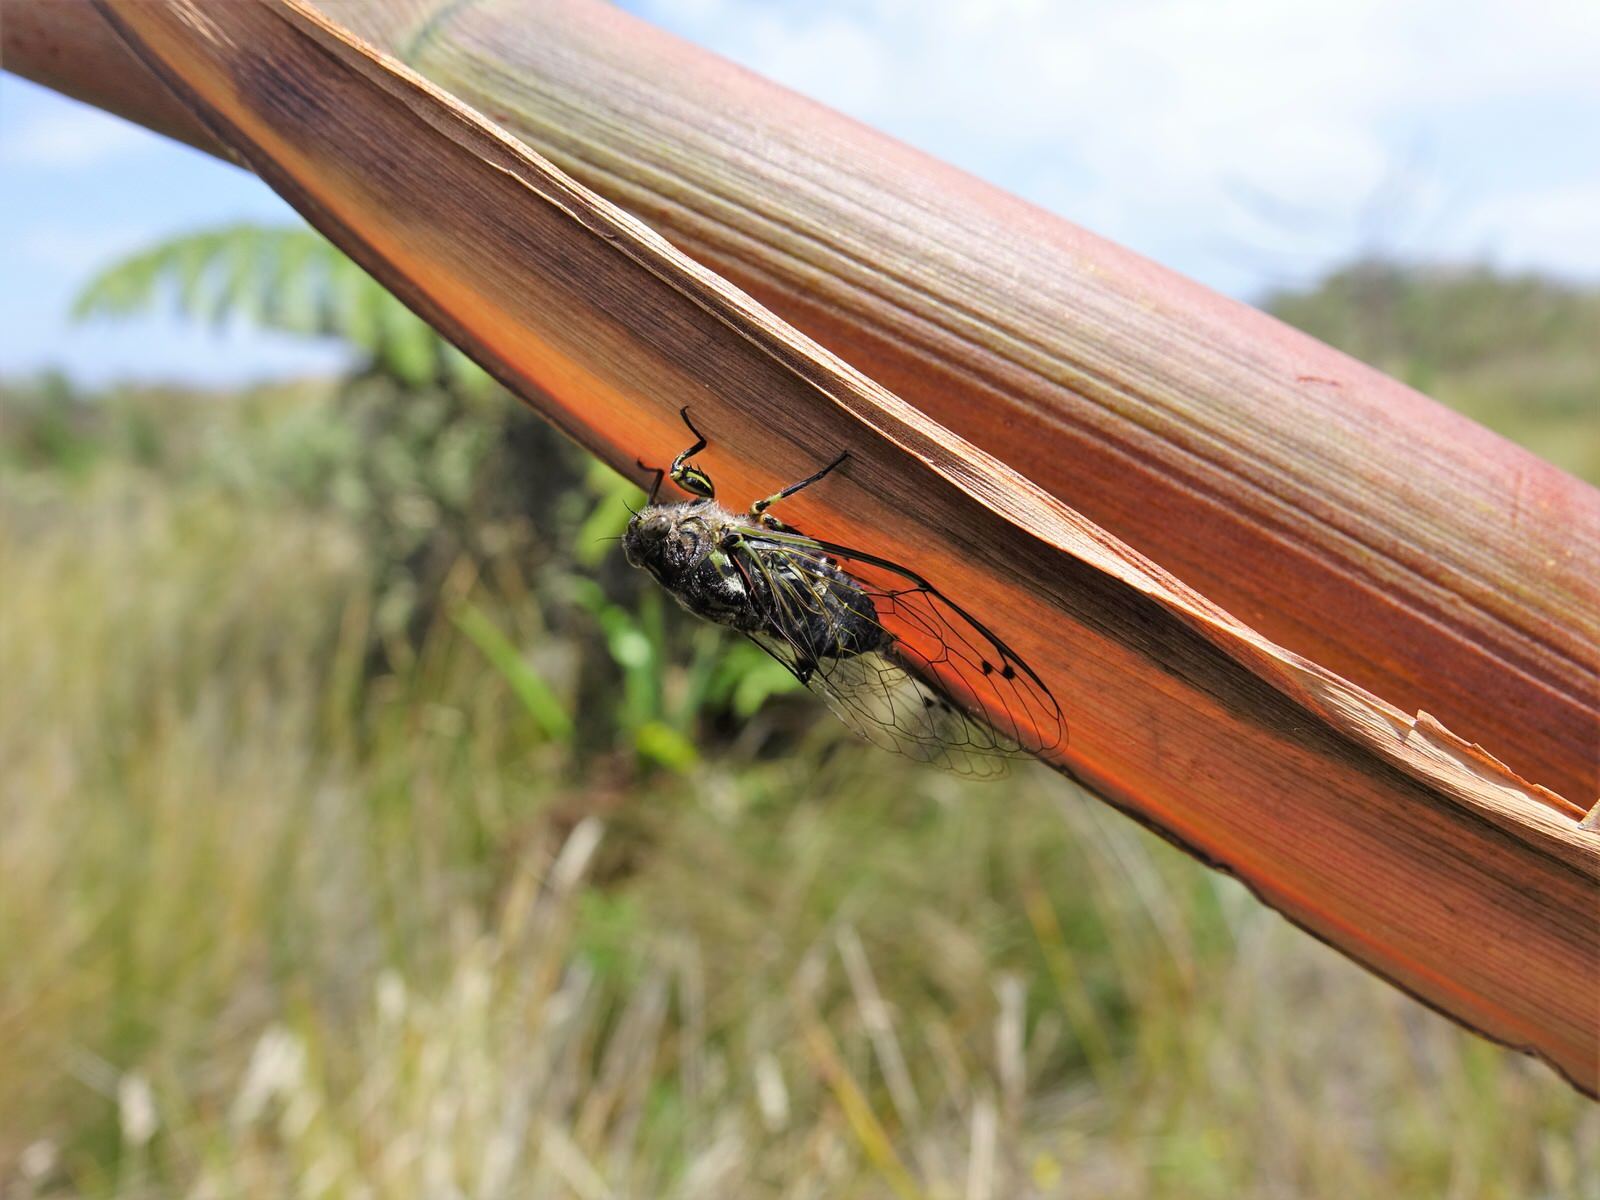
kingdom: Animalia
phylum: Arthropoda
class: Insecta
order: Hemiptera
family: Cicadidae
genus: Amphipsalta
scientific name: Amphipsalta zelandica
